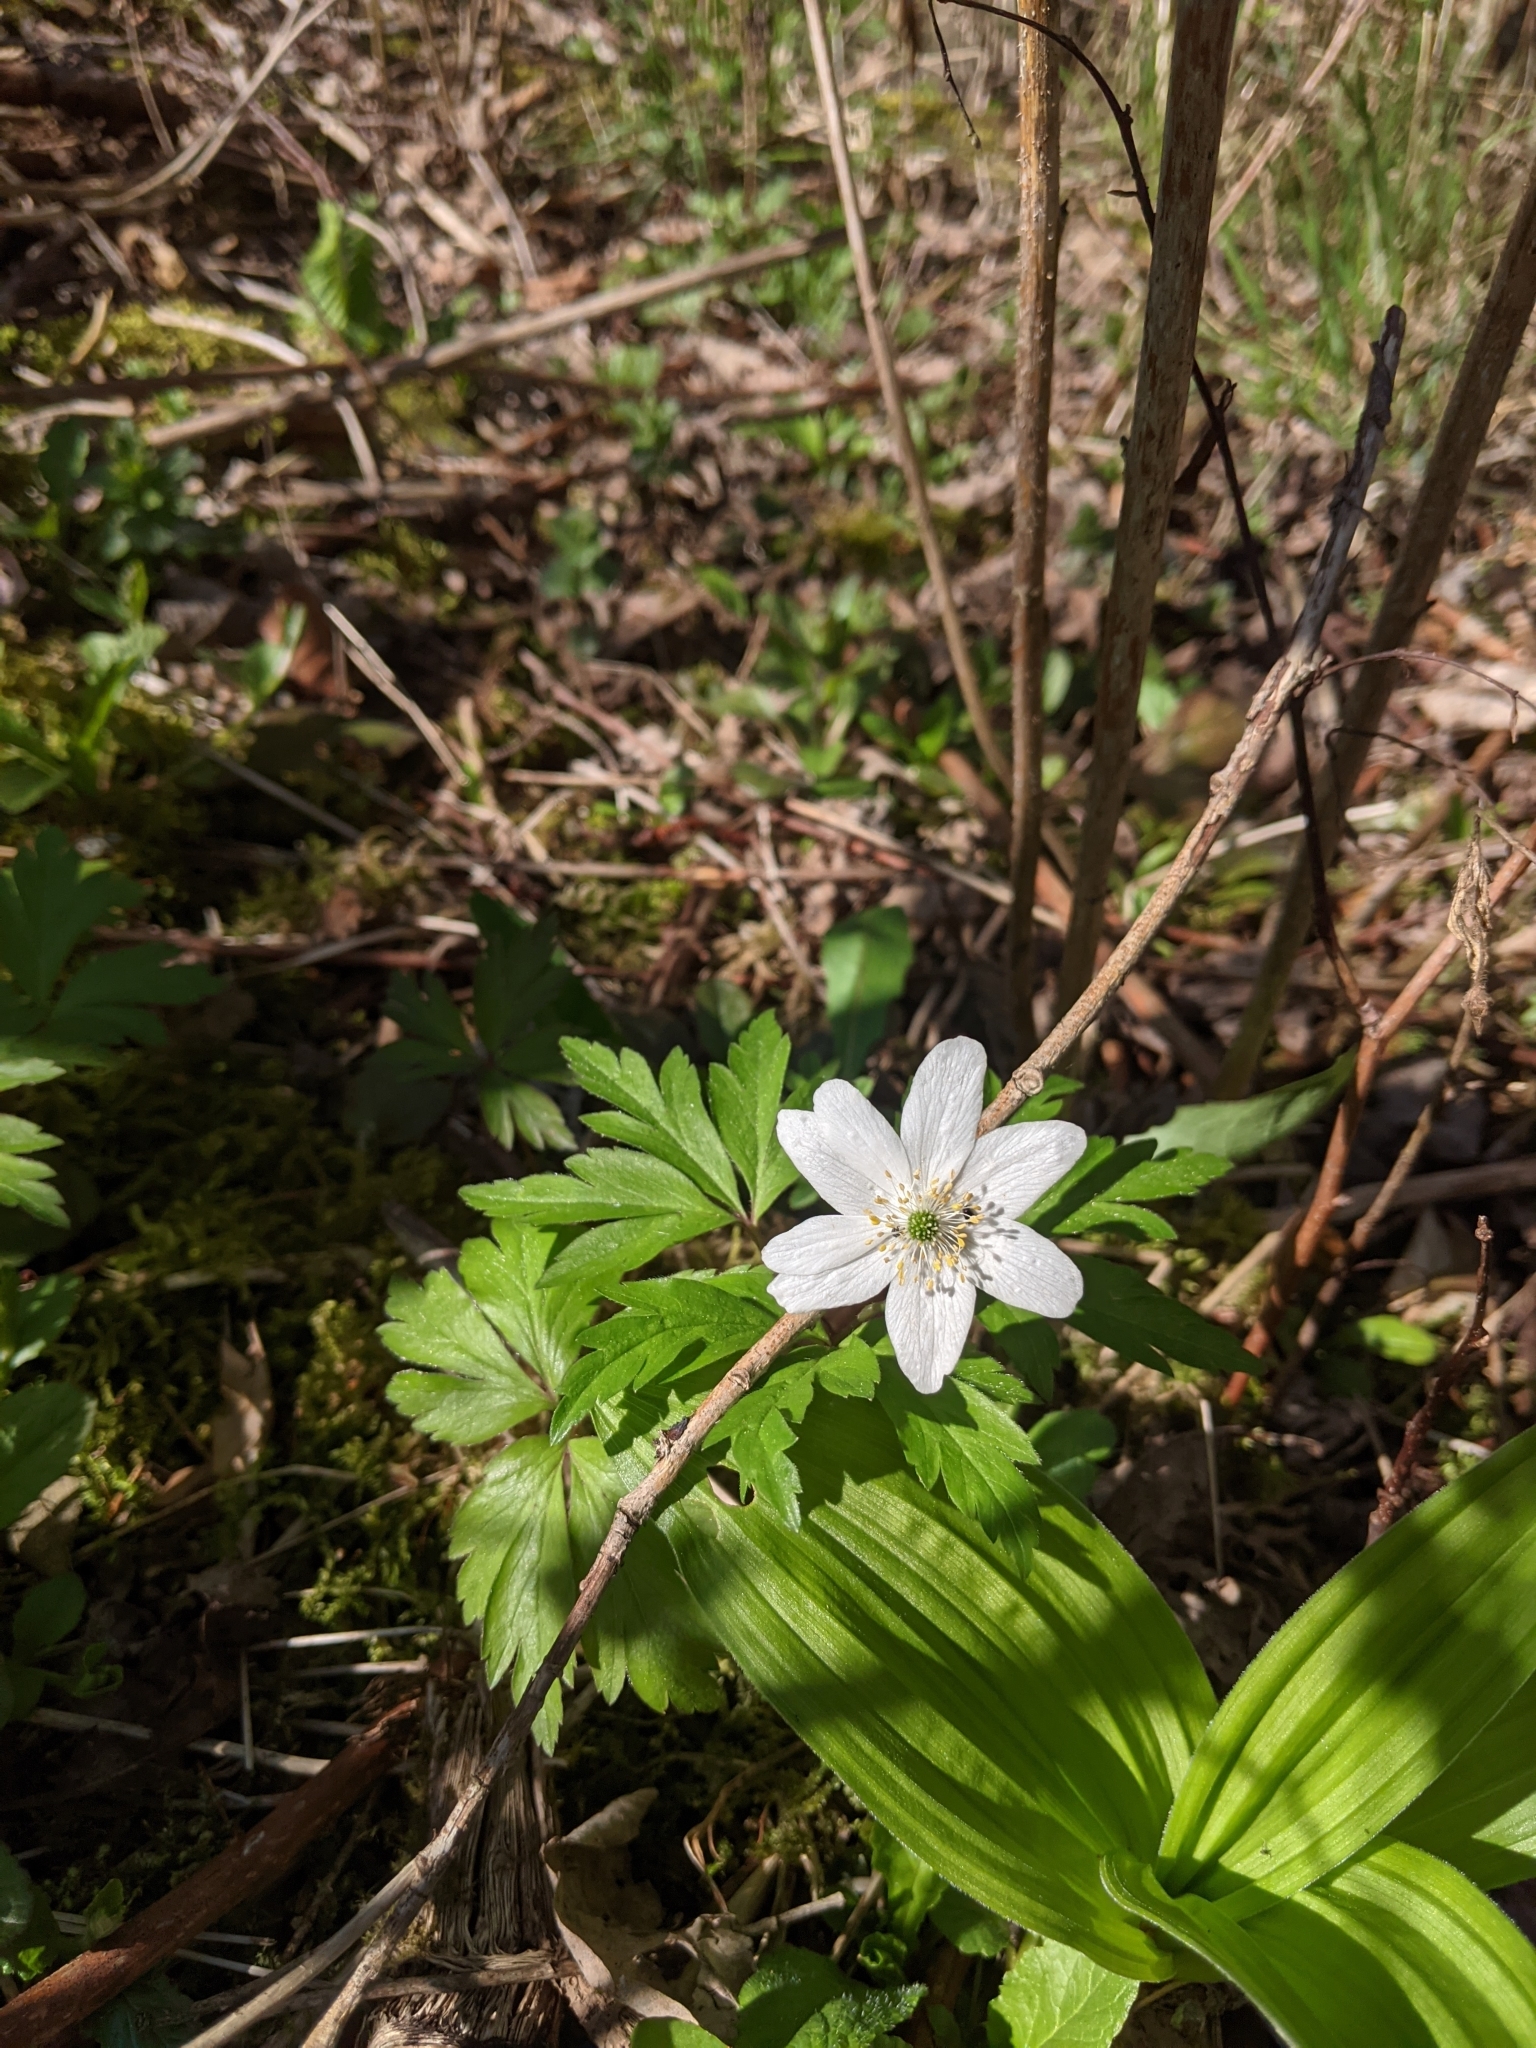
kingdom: Plantae
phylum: Tracheophyta
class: Magnoliopsida
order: Ranunculales
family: Ranunculaceae
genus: Anemone
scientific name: Anemone nemorosa
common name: Wood anemone
